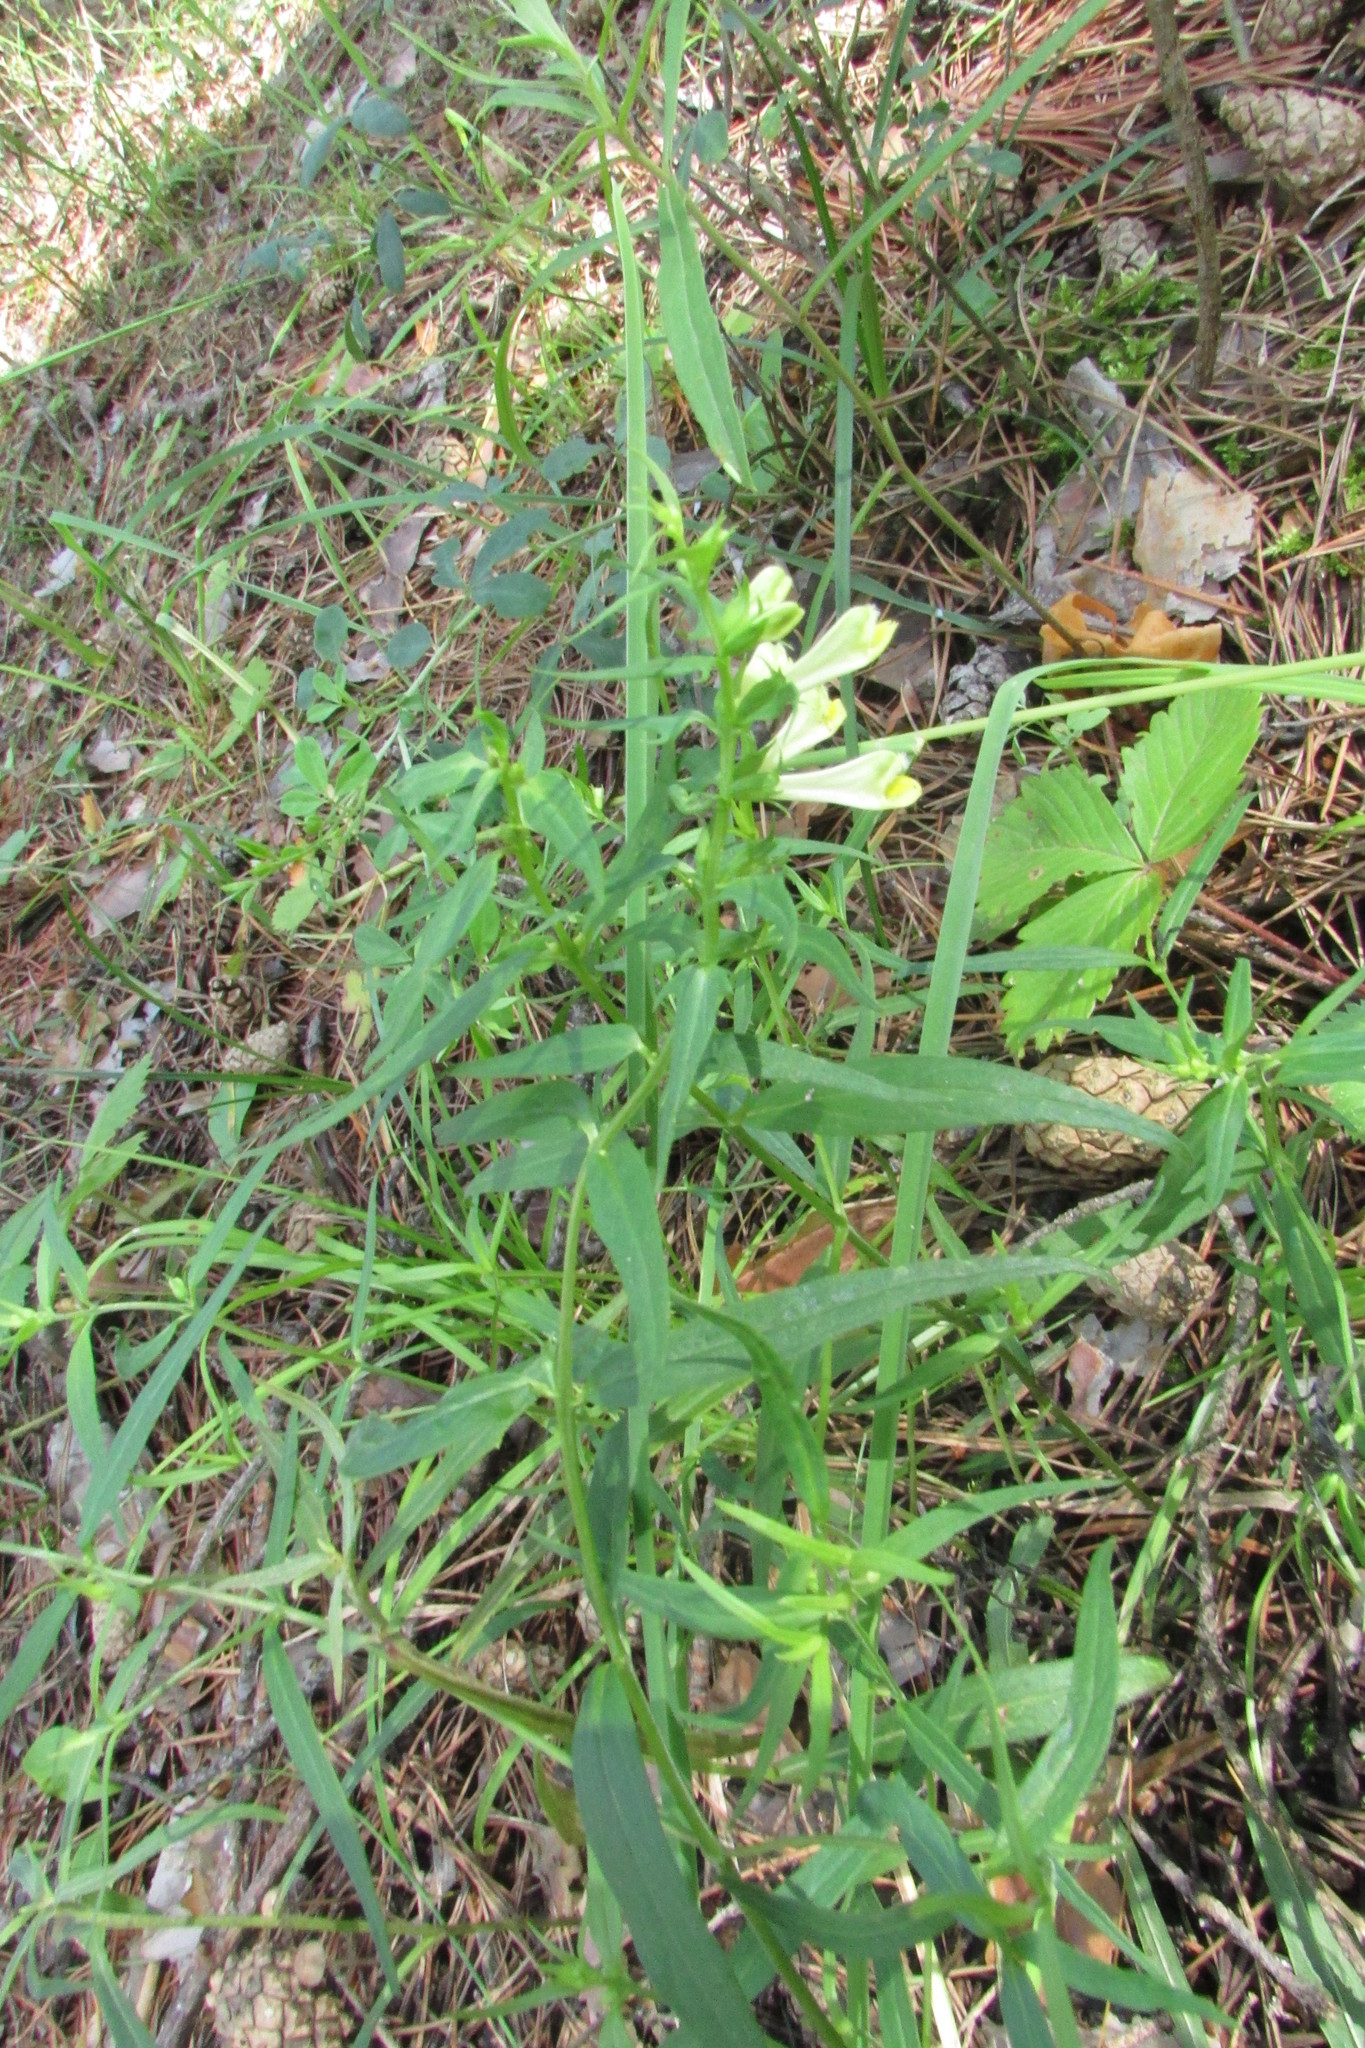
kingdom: Plantae
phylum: Tracheophyta
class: Magnoliopsida
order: Lamiales
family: Orobanchaceae
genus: Melampyrum
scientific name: Melampyrum pratense
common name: Common cow-wheat
